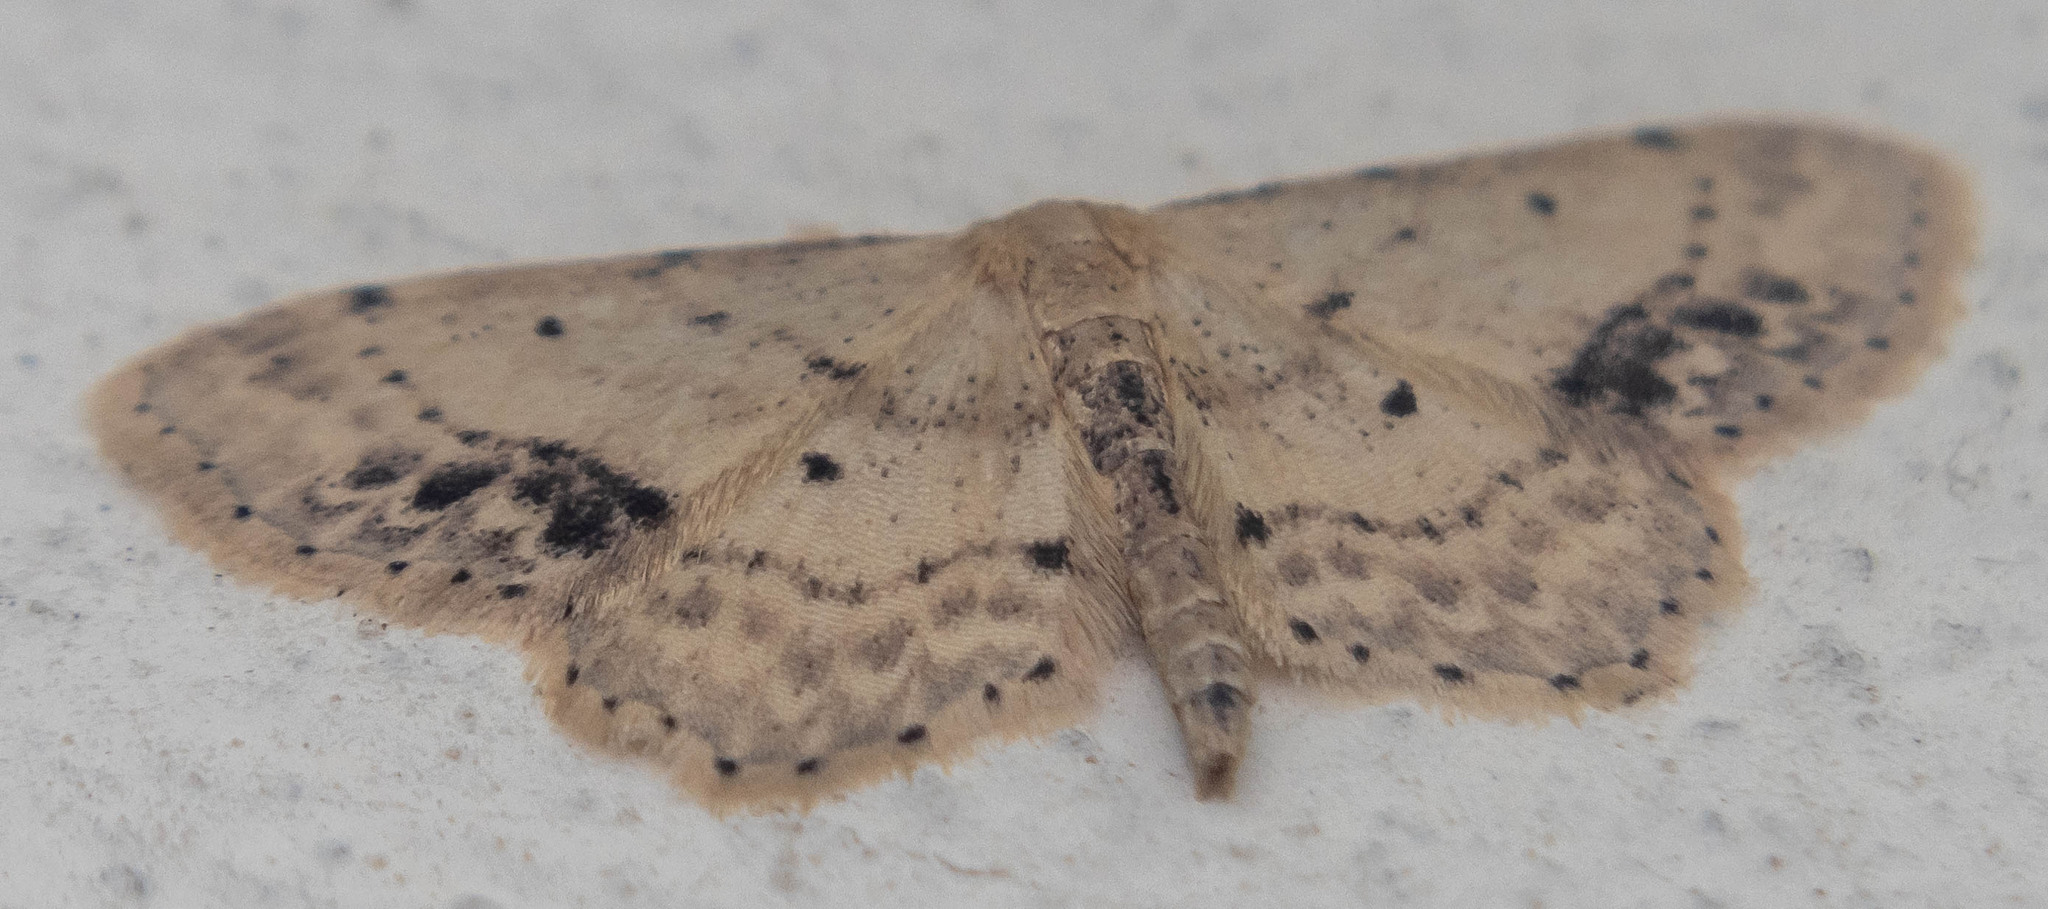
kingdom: Animalia
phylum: Arthropoda
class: Insecta
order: Lepidoptera
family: Geometridae
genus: Idaea
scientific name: Idaea dimidiata
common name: Single-dotted wave
